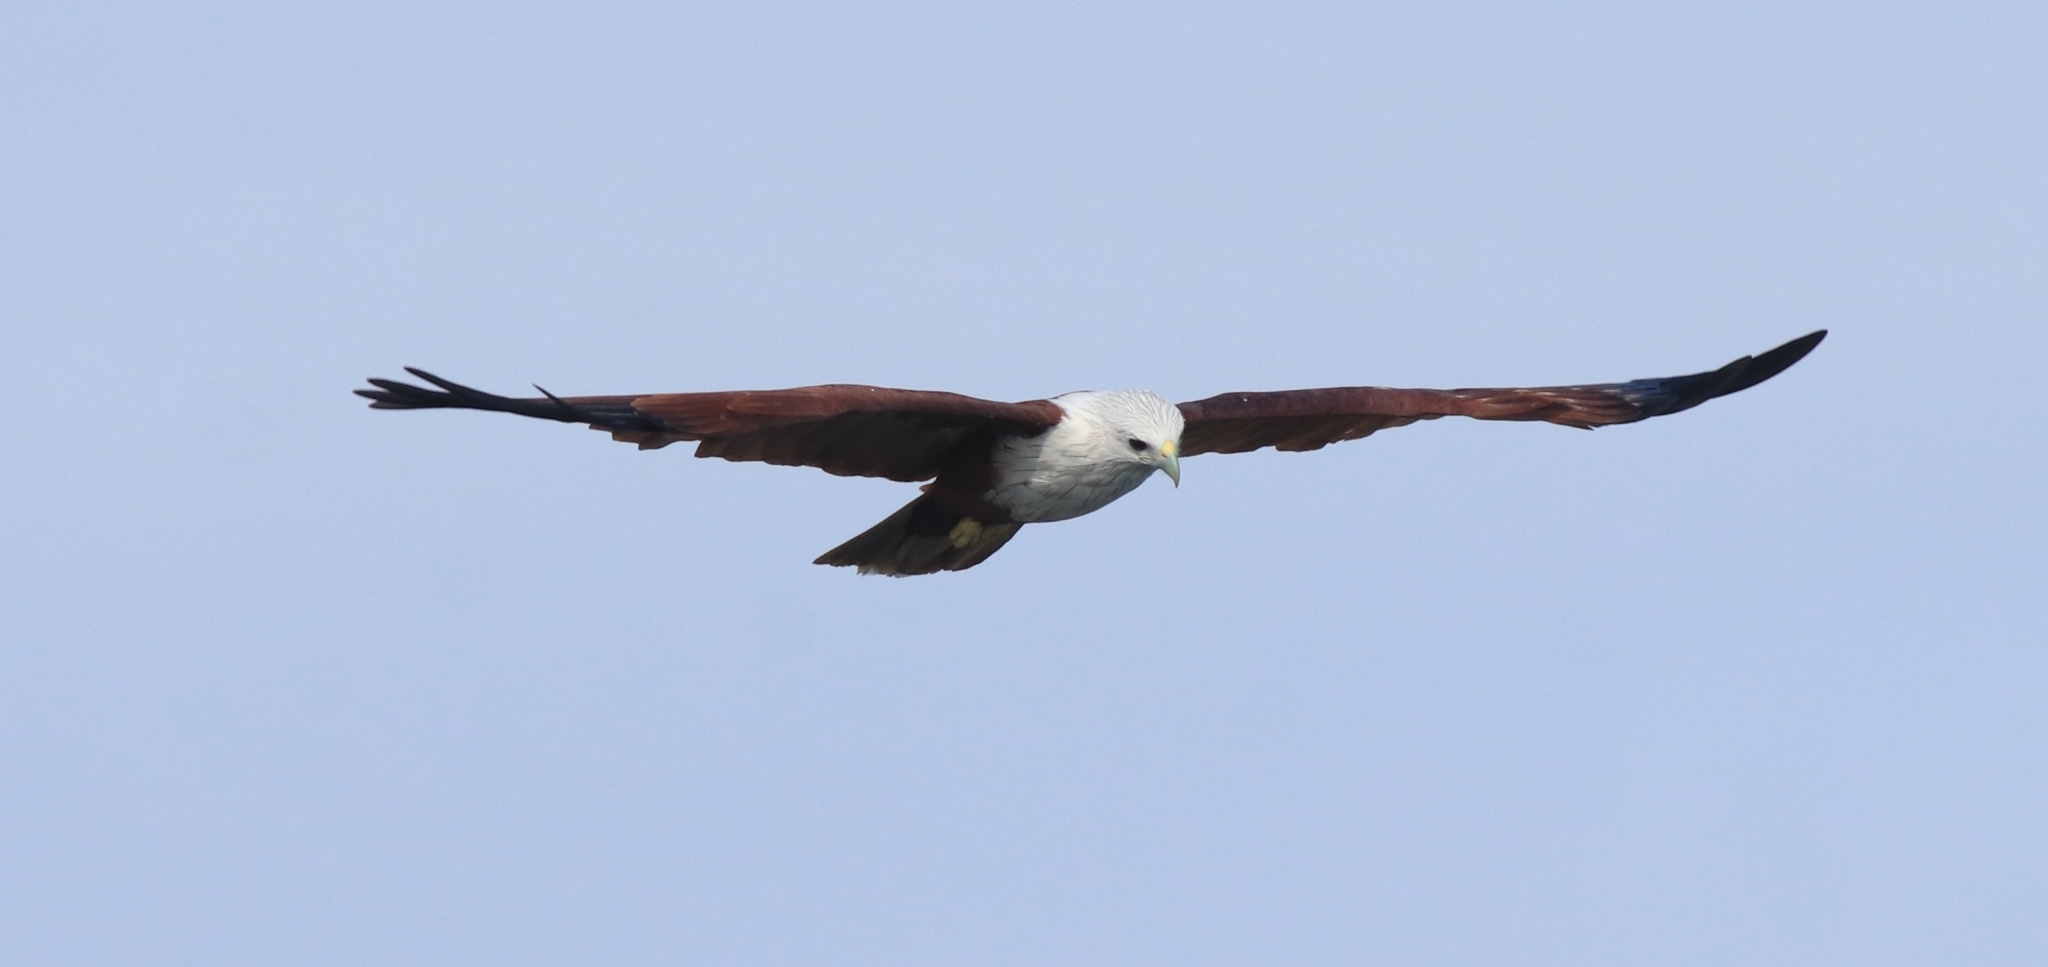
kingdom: Animalia
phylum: Chordata
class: Aves
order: Accipitriformes
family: Accipitridae
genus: Haliastur
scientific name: Haliastur indus
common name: Brahminy kite
